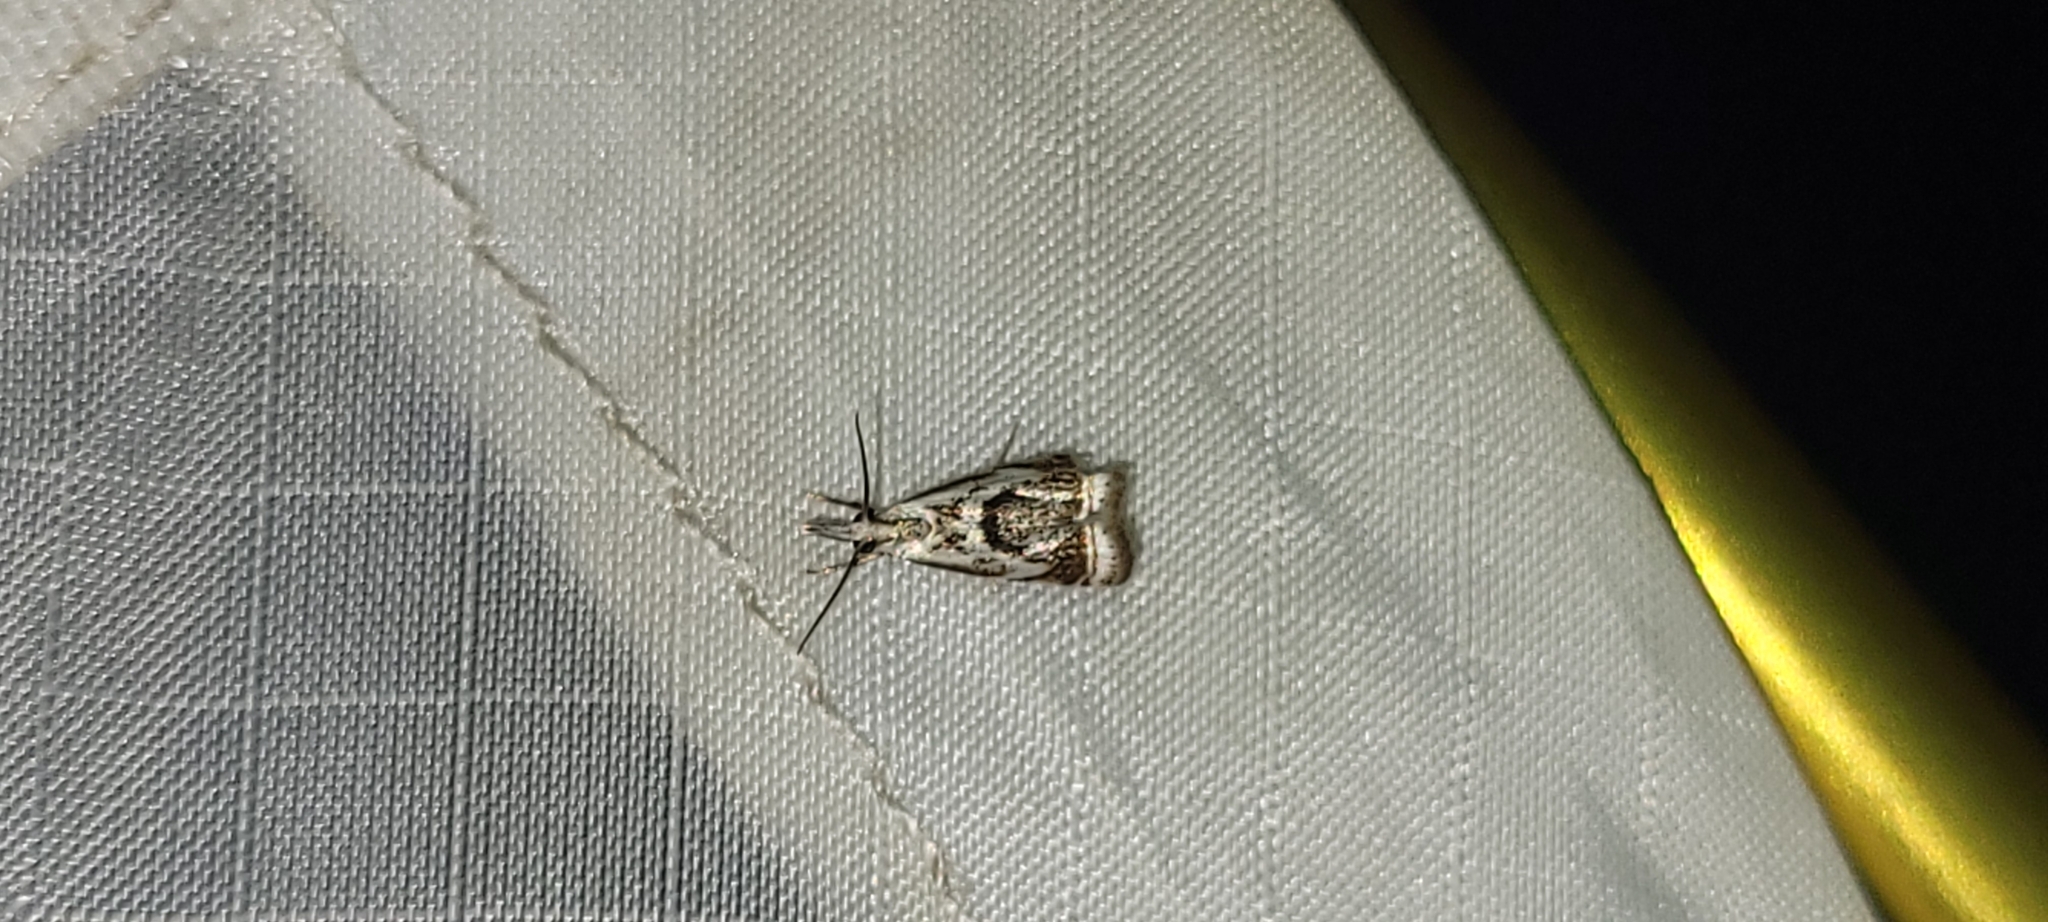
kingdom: Animalia
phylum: Arthropoda
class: Insecta
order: Lepidoptera
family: Crambidae
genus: Microcrambus
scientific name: Microcrambus elegans
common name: Elegant grass-veneer
